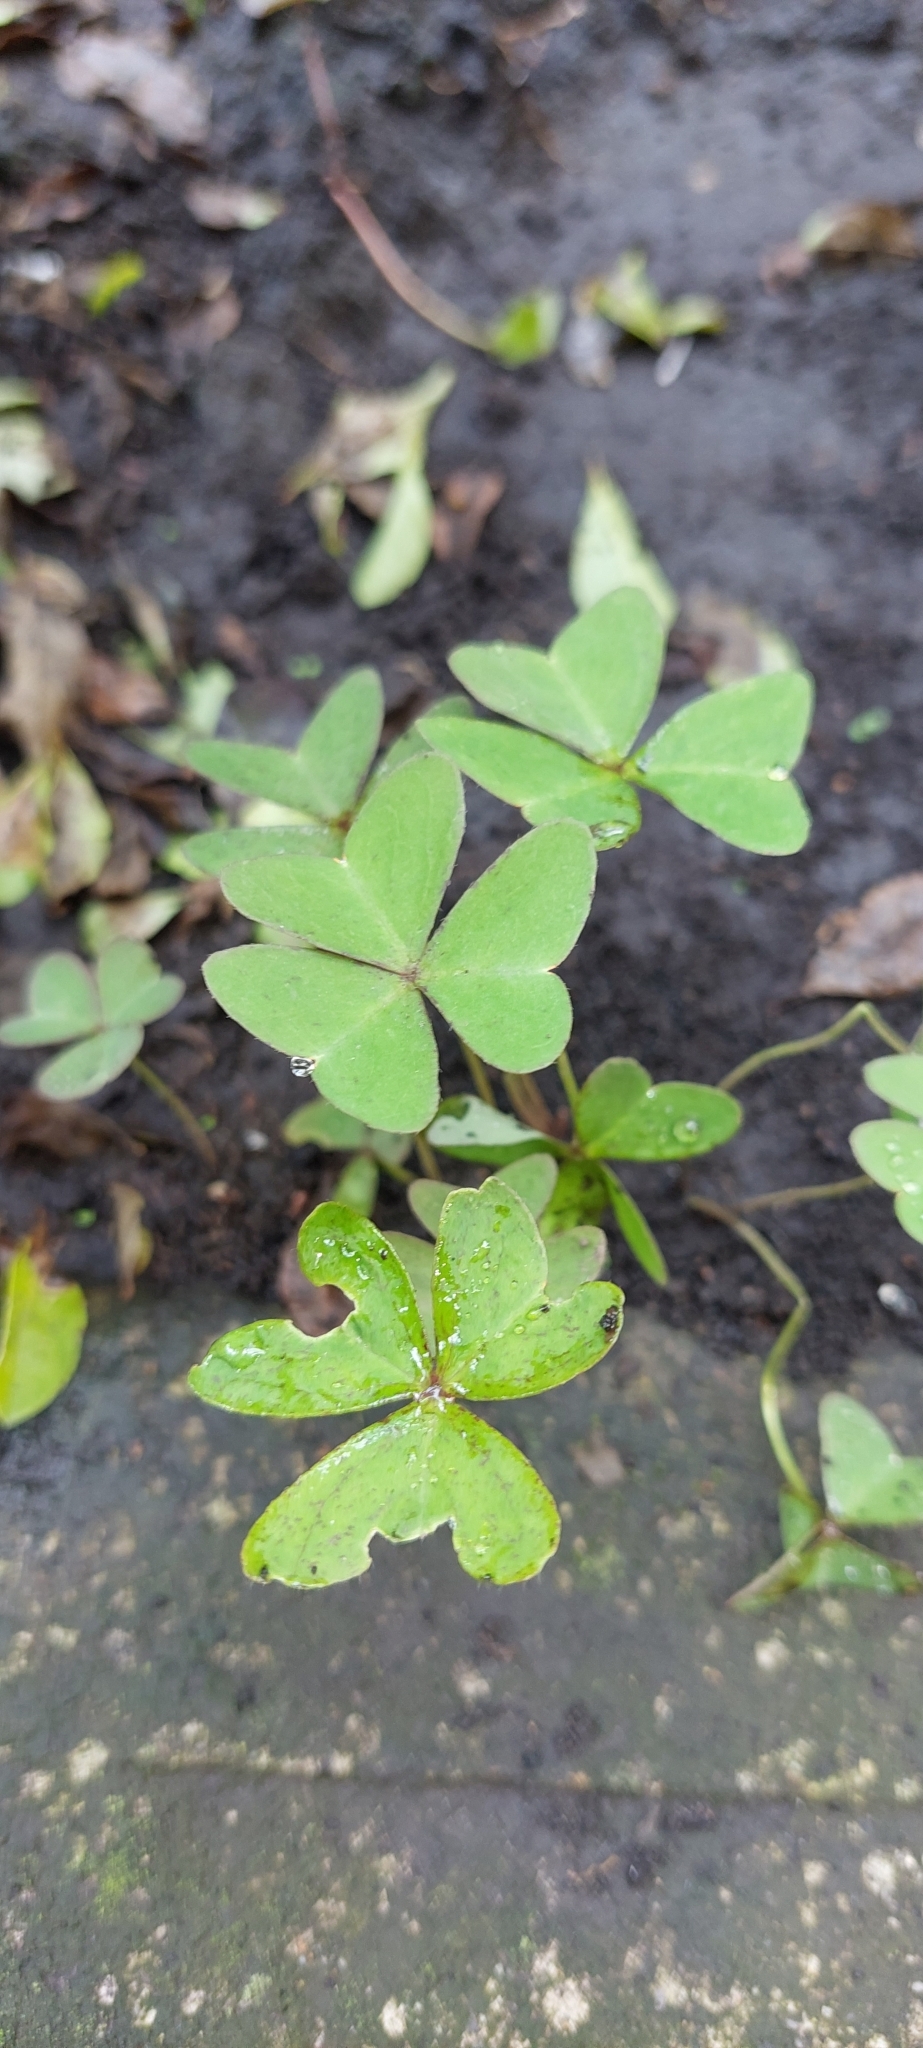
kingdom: Plantae
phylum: Tracheophyta
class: Magnoliopsida
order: Oxalidales
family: Oxalidaceae
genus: Oxalis
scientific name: Oxalis latifolia
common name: Garden pink-sorrel
